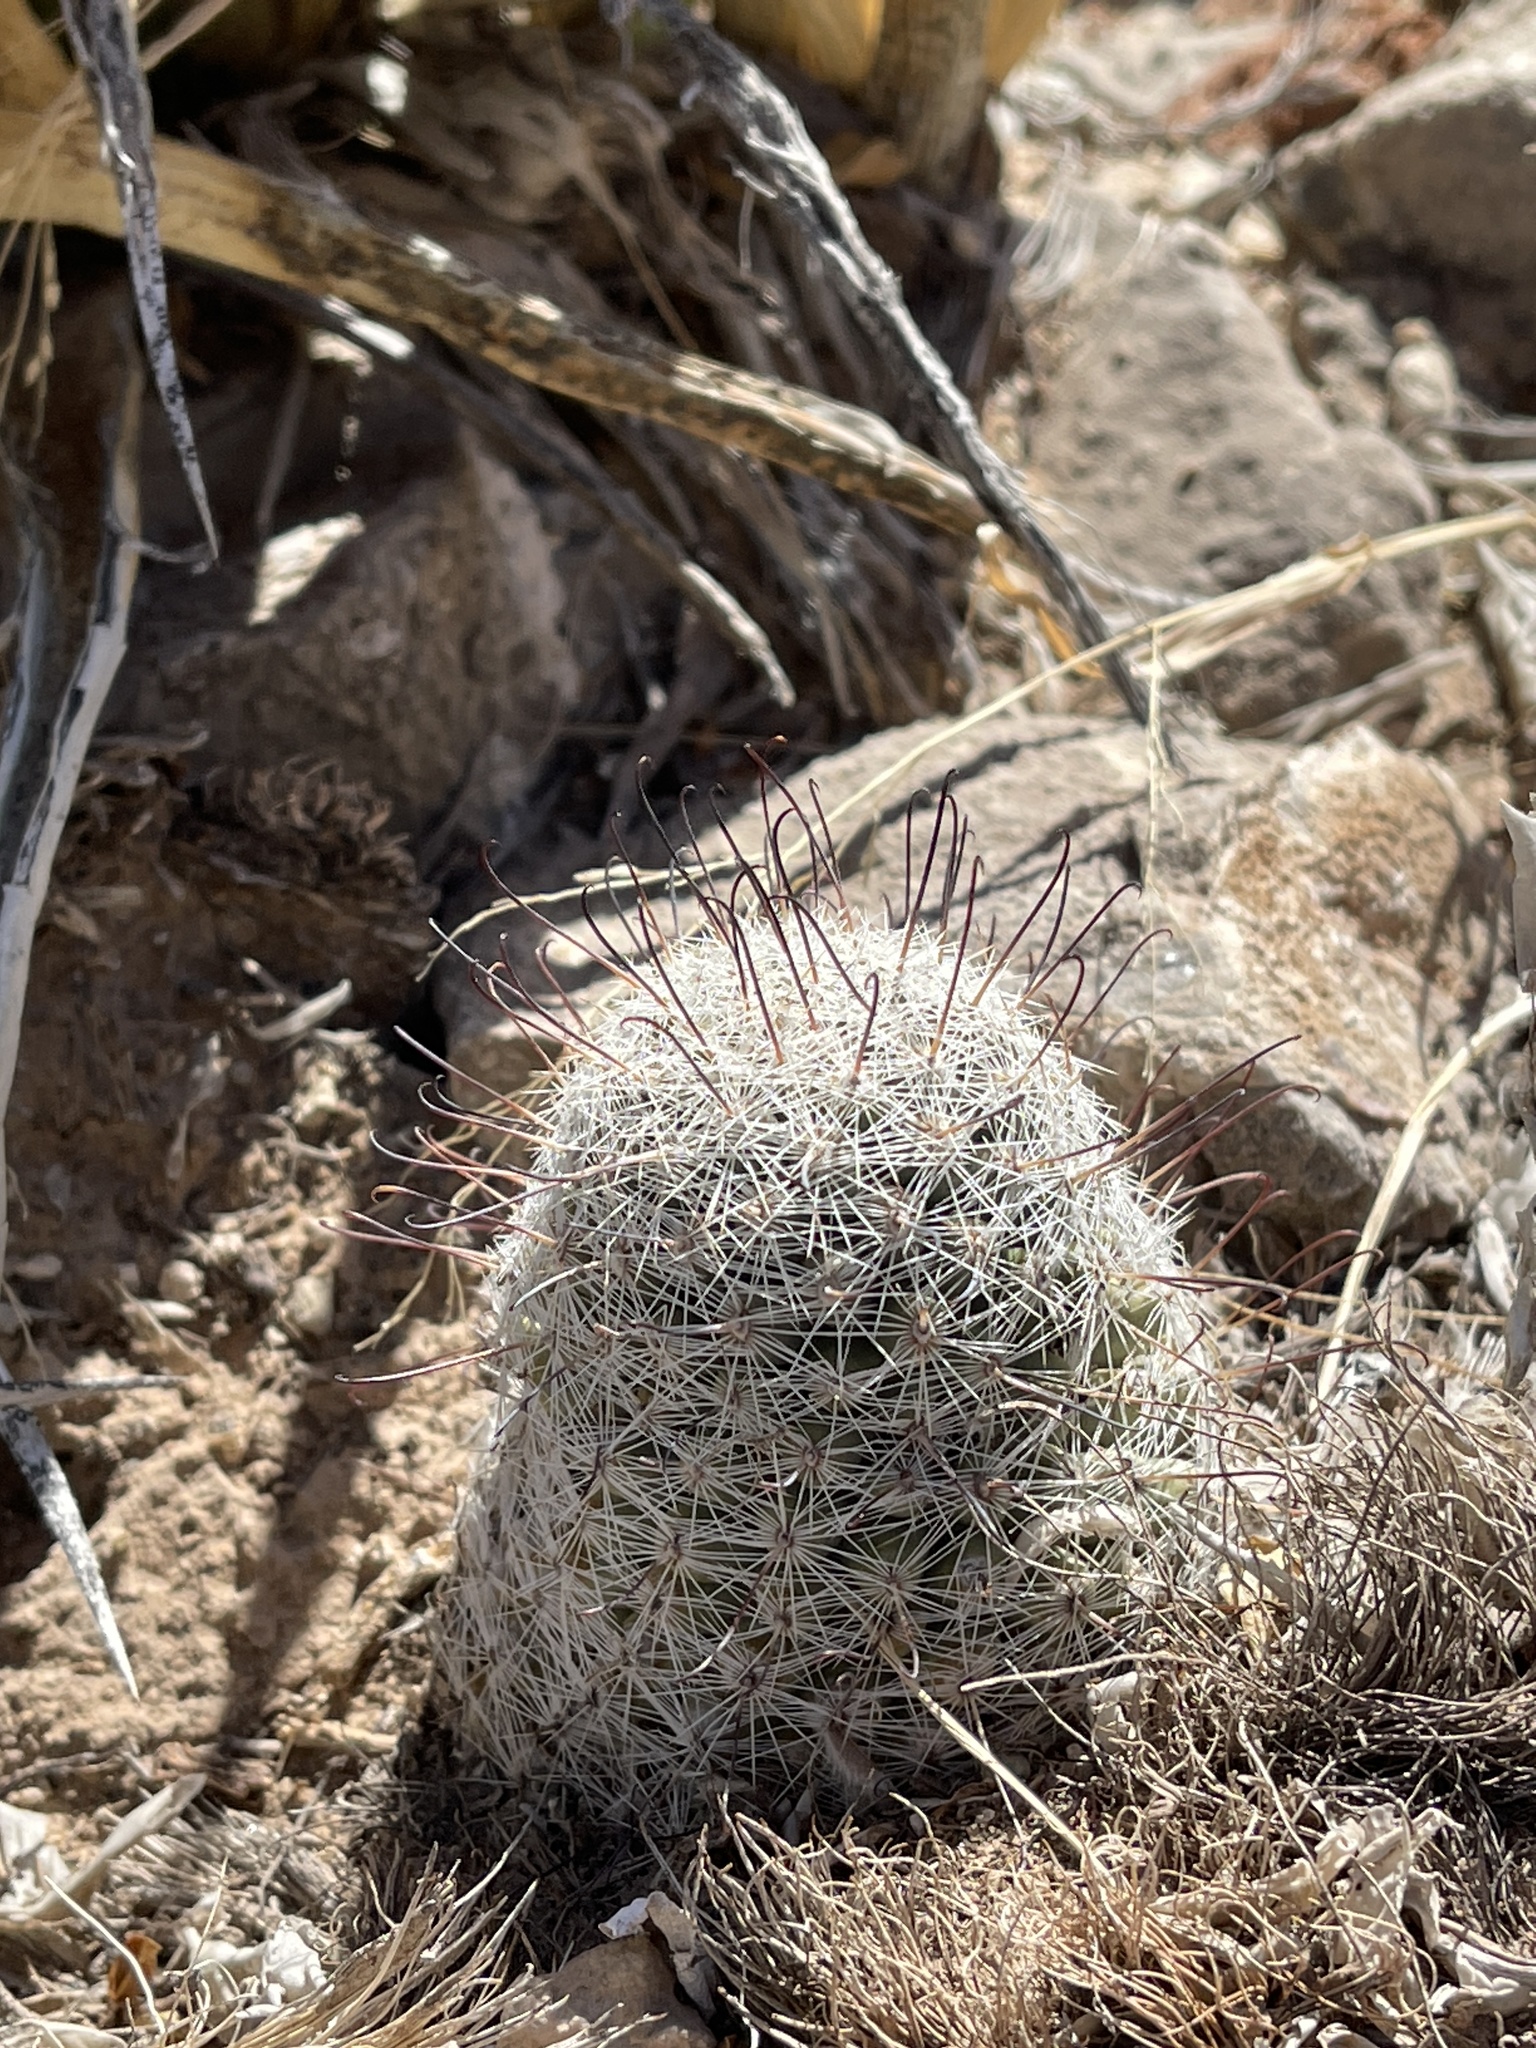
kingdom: Plantae
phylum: Tracheophyta
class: Magnoliopsida
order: Caryophyllales
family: Cactaceae
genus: Cochemiea
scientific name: Cochemiea grahamii
